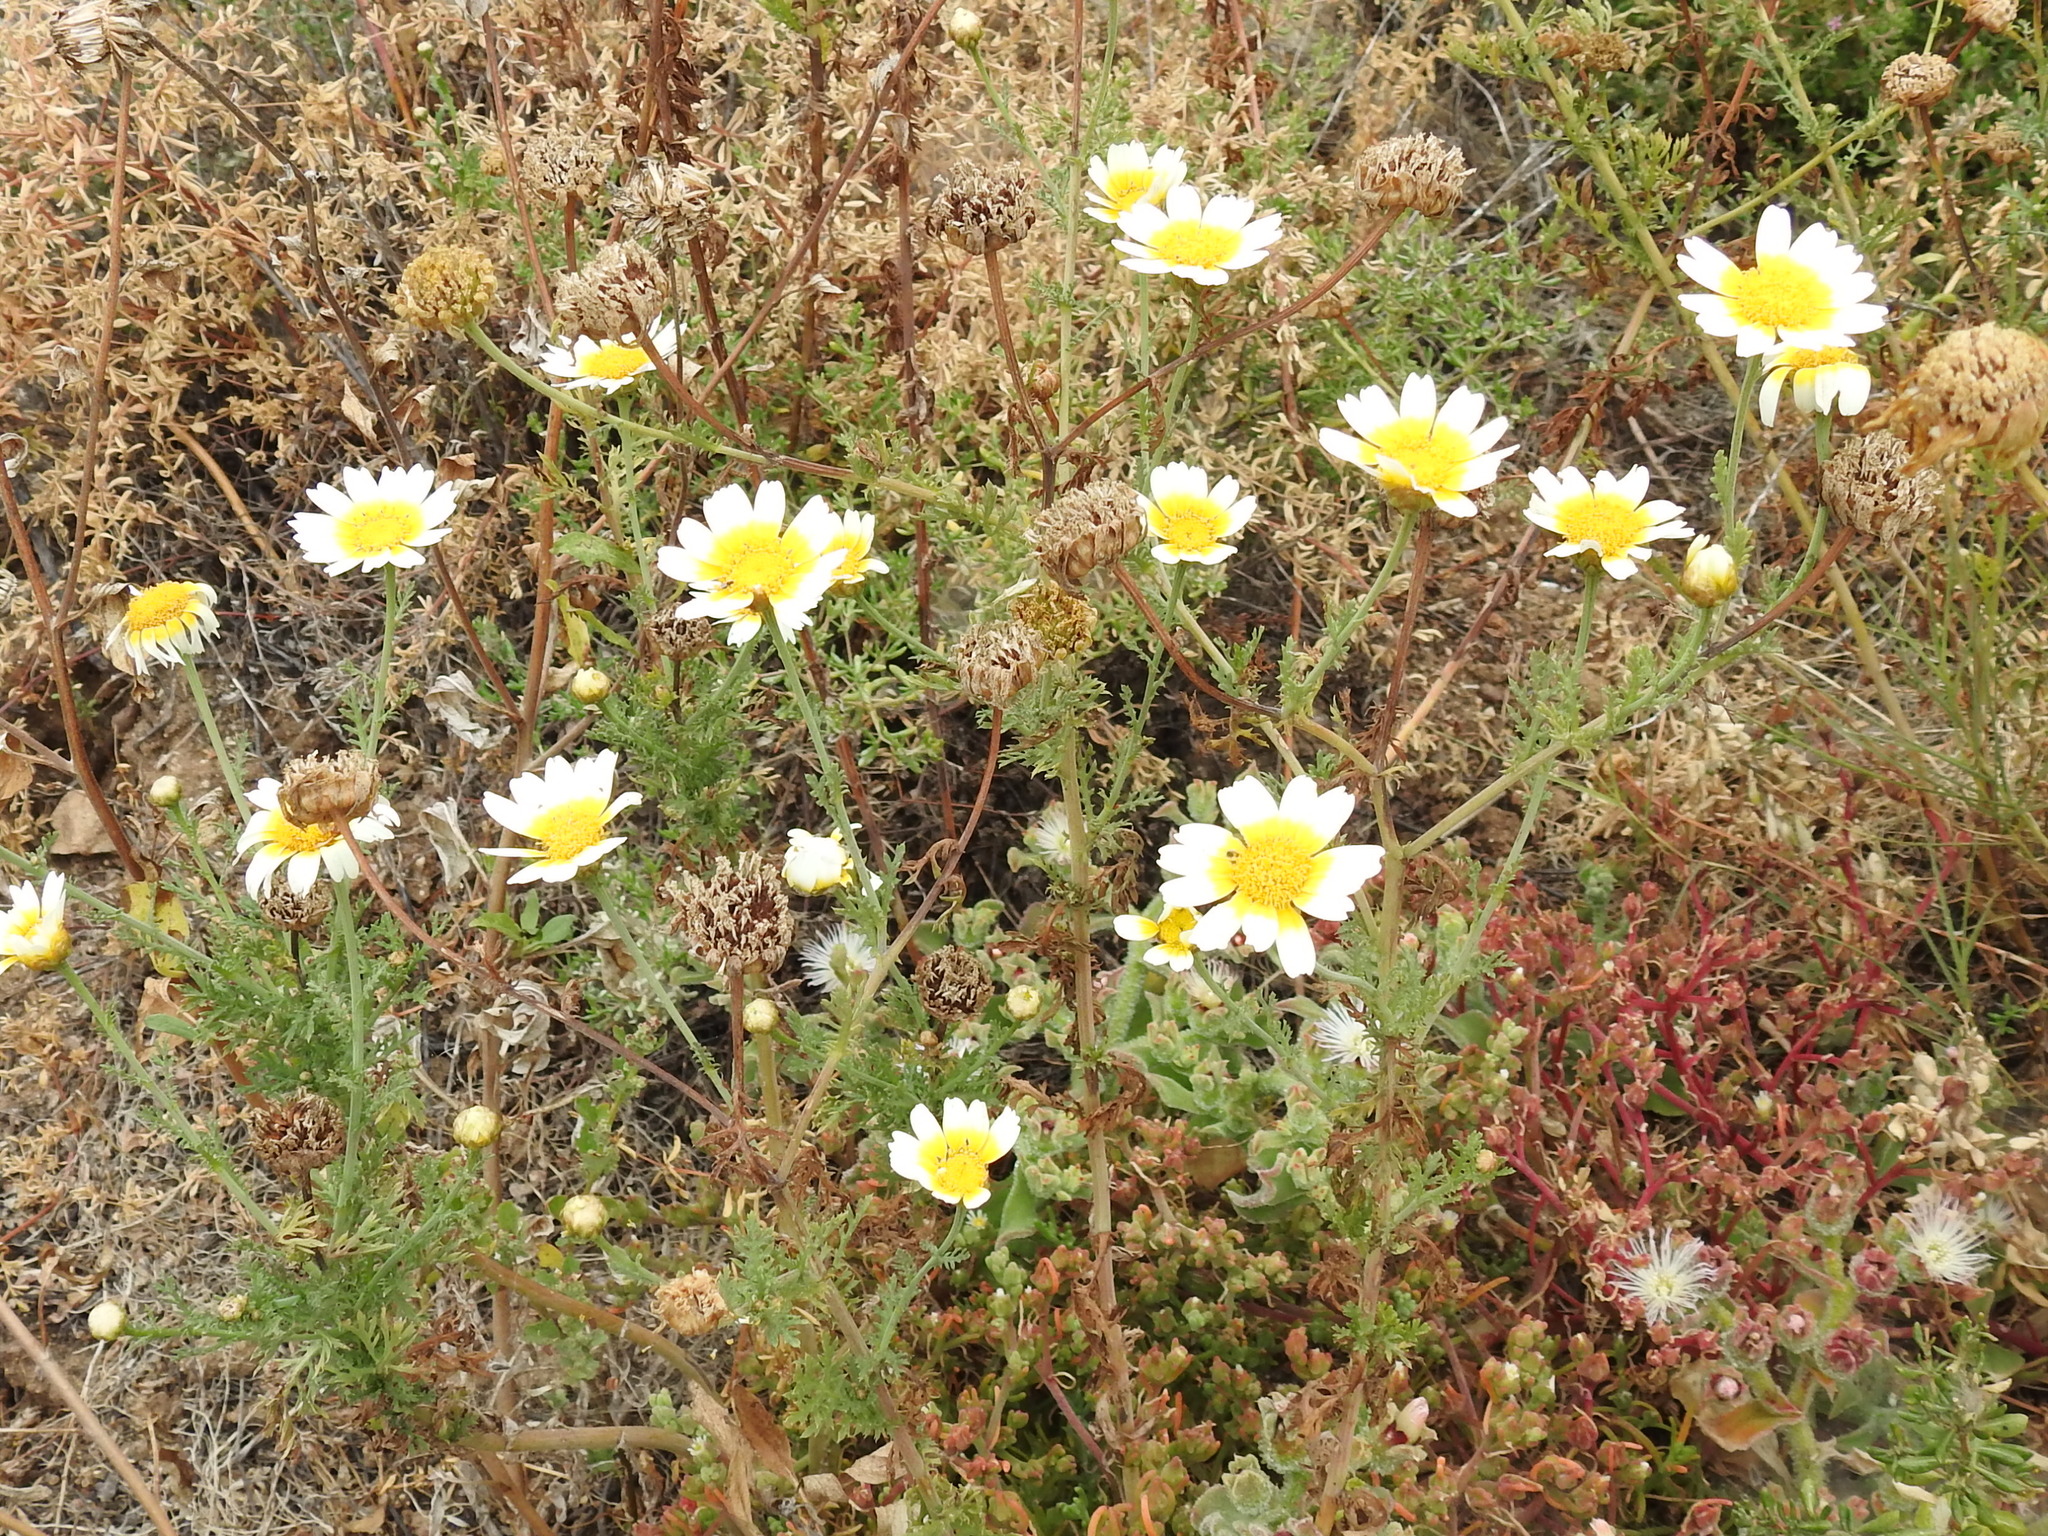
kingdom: Plantae
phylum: Tracheophyta
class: Magnoliopsida
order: Asterales
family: Asteraceae
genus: Glebionis
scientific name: Glebionis coronaria
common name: Crowndaisy
